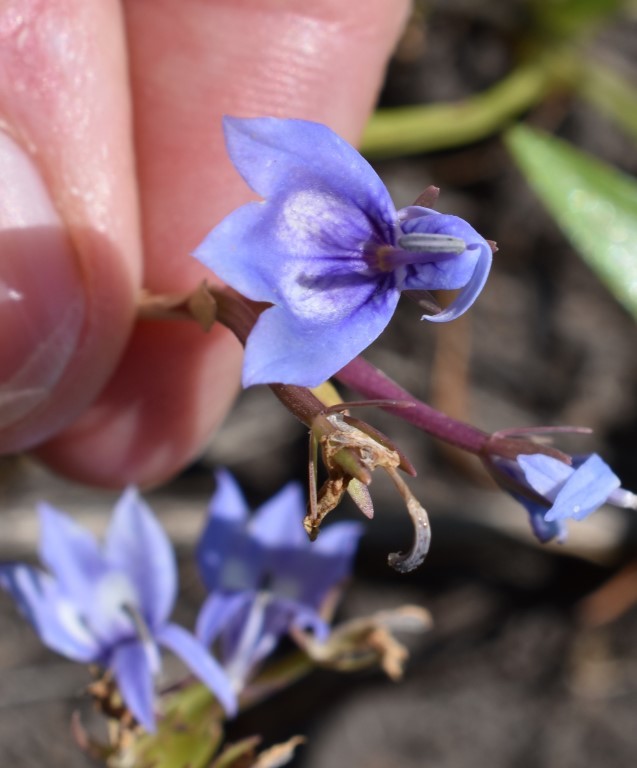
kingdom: Plantae
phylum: Tracheophyta
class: Magnoliopsida
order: Asterales
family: Campanulaceae
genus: Downingia
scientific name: Downingia elegans
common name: Californian lobelia
